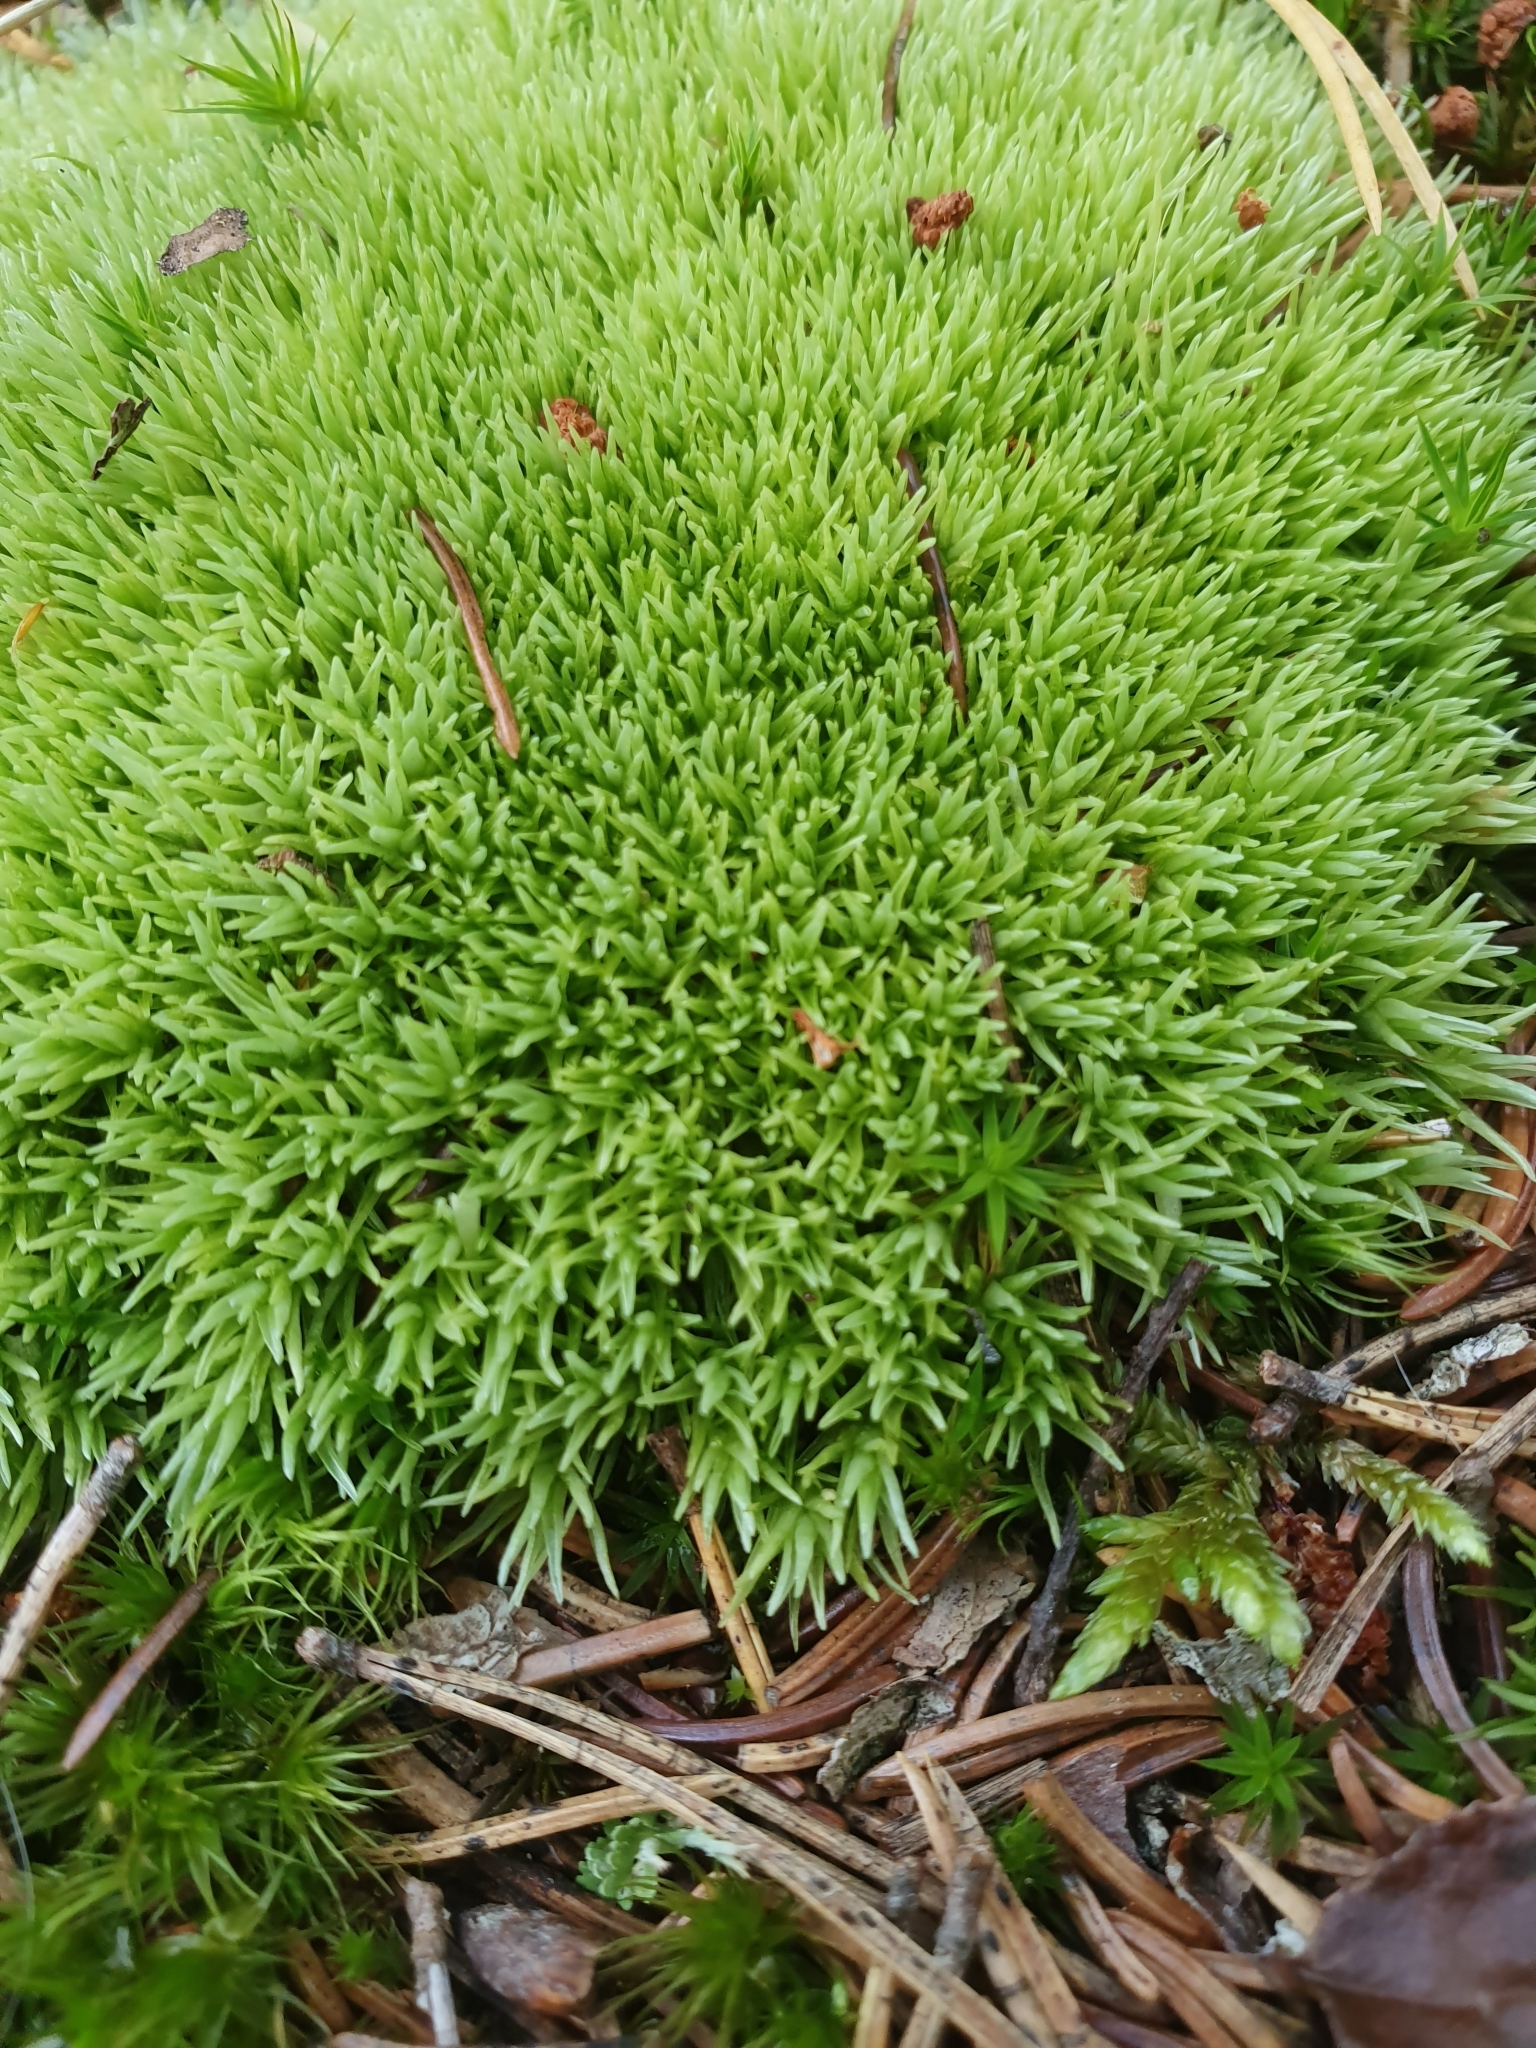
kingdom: Plantae
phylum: Bryophyta
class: Bryopsida
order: Dicranales
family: Leucobryaceae
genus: Leucobryum
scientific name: Leucobryum glaucum
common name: Large white-moss
